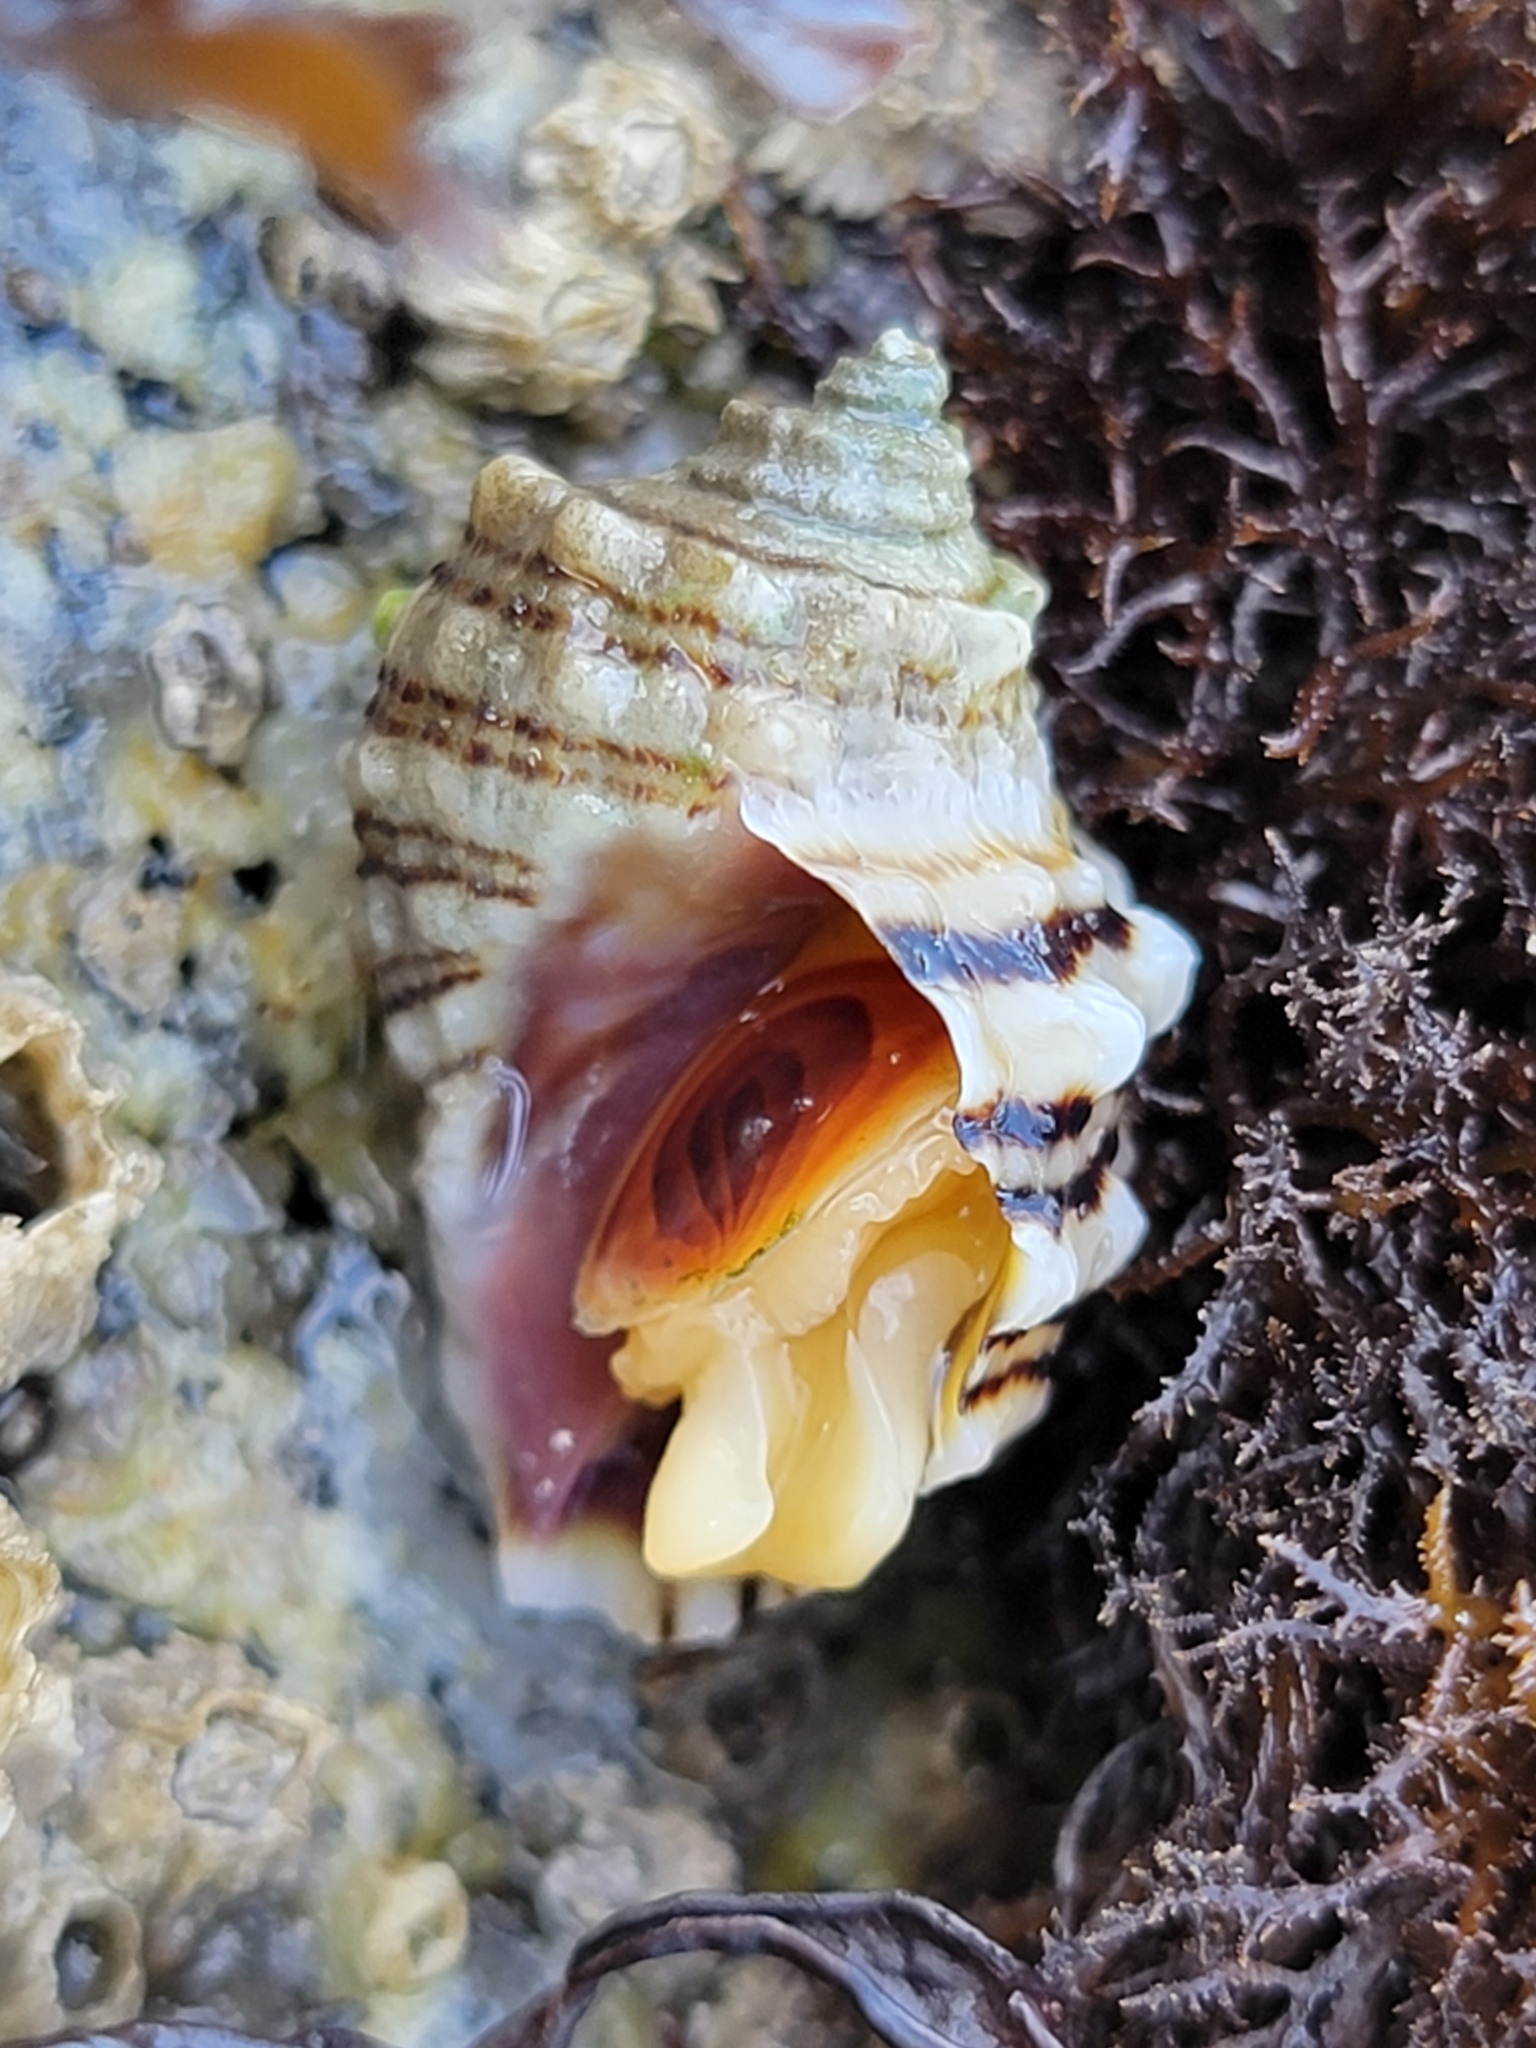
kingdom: Animalia
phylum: Mollusca
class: Gastropoda
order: Neogastropoda
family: Muricidae
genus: Nucella
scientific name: Nucella ostrina
